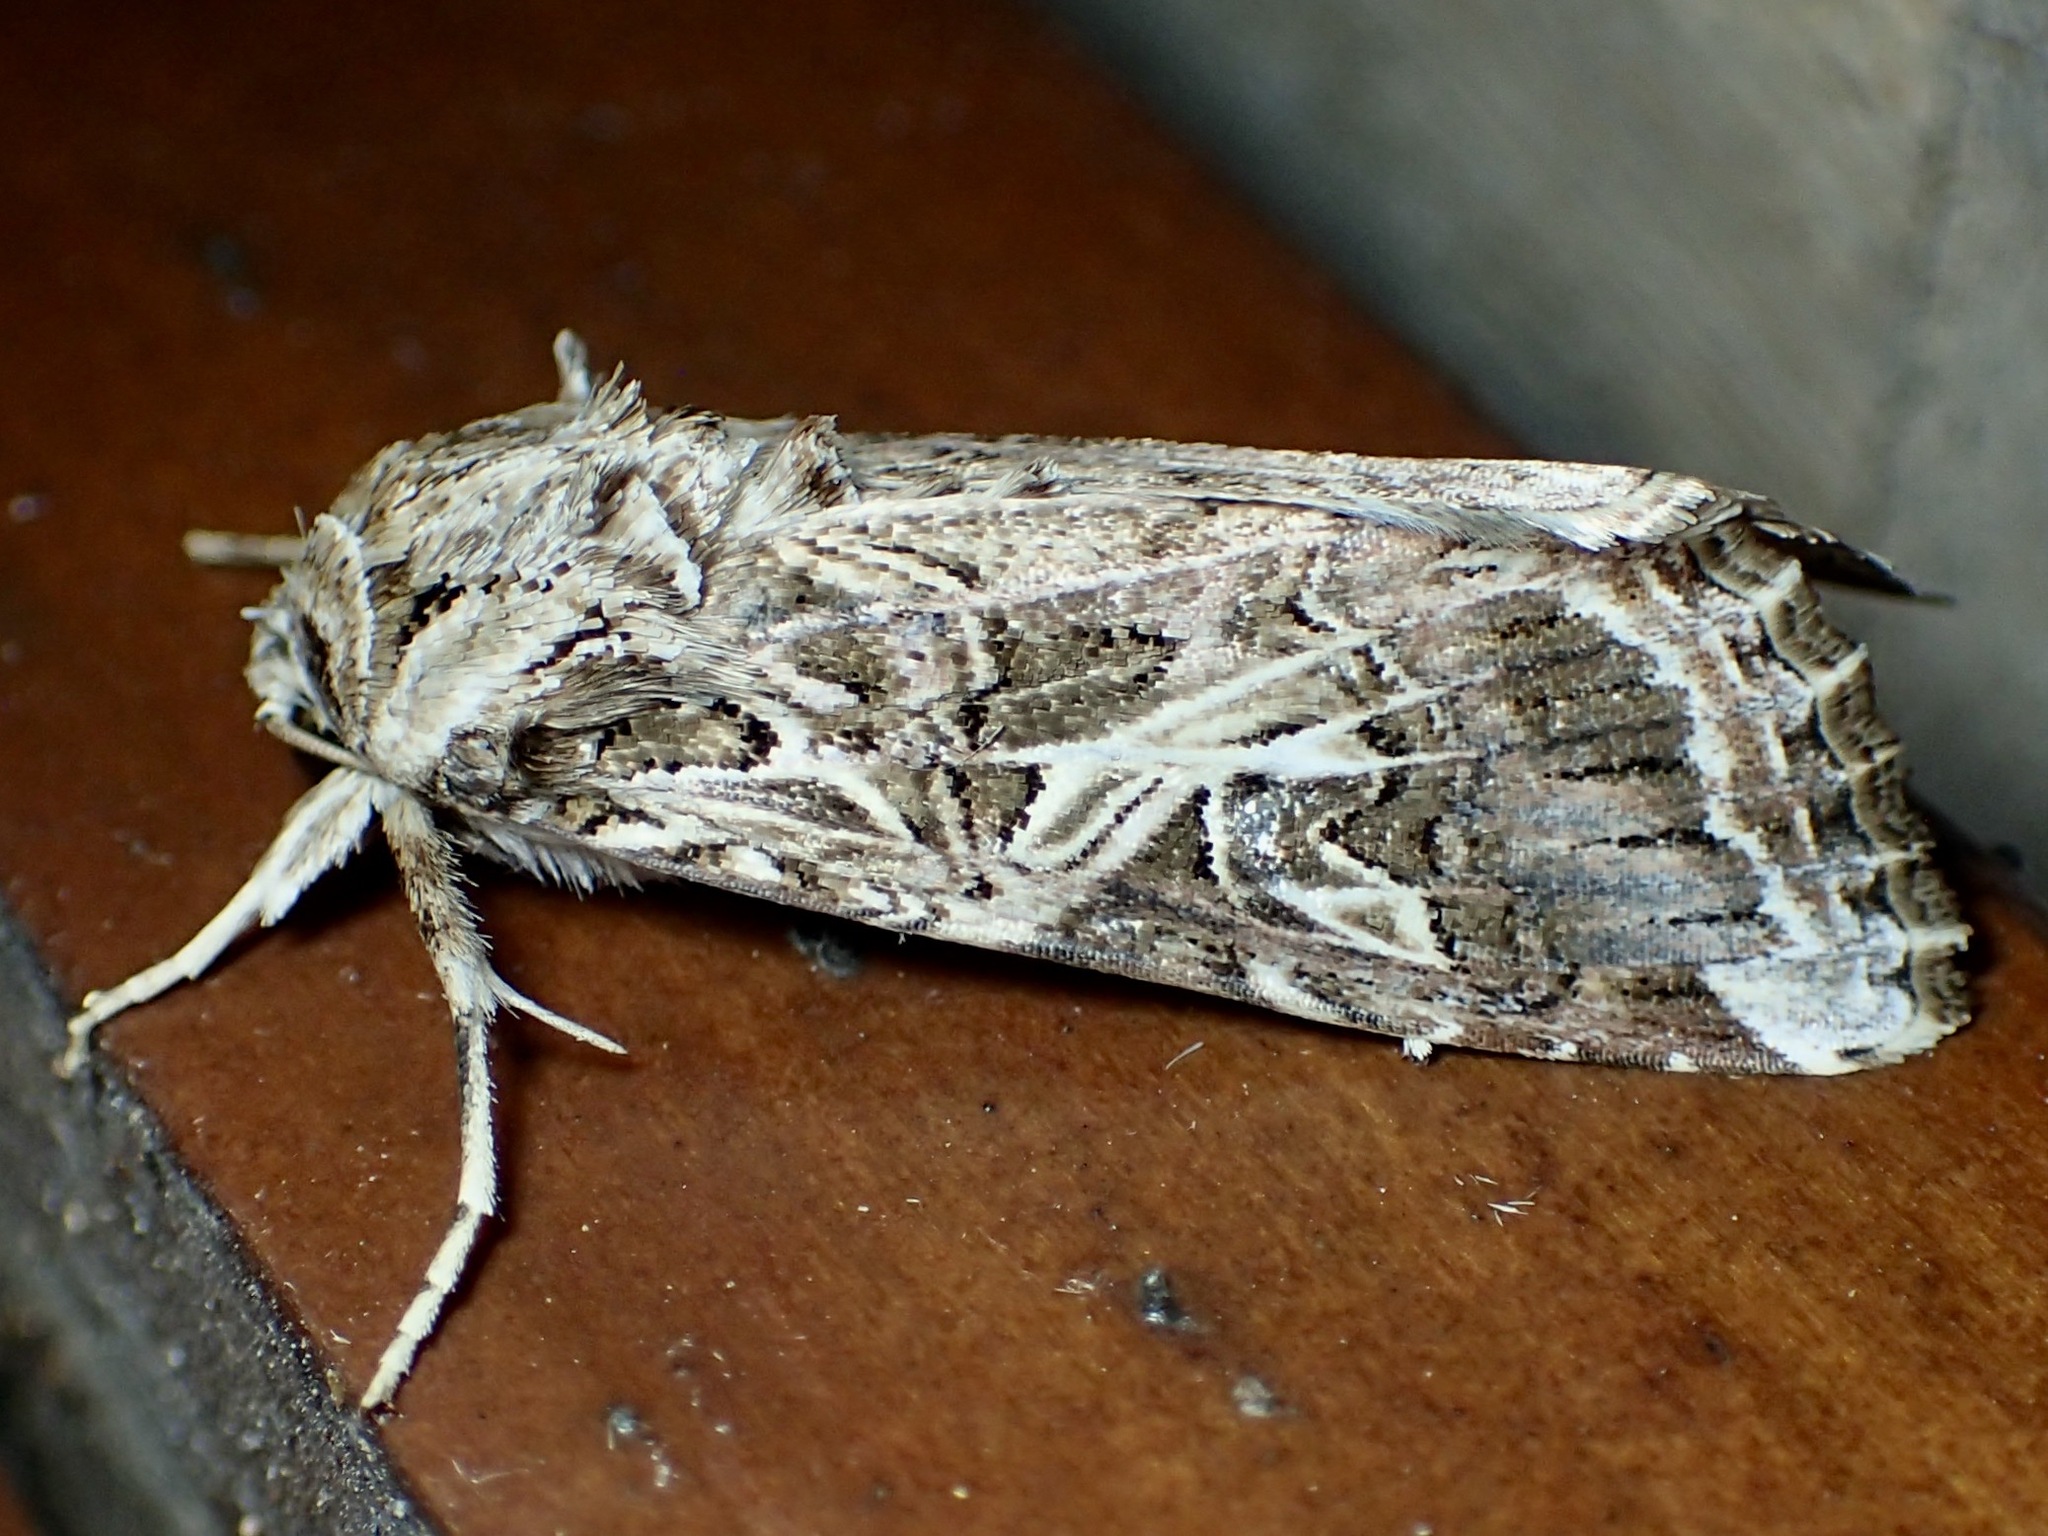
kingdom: Animalia
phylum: Arthropoda
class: Insecta
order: Lepidoptera
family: Noctuidae
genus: Spodoptera
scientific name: Spodoptera litura
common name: Asian cotton leafworm
